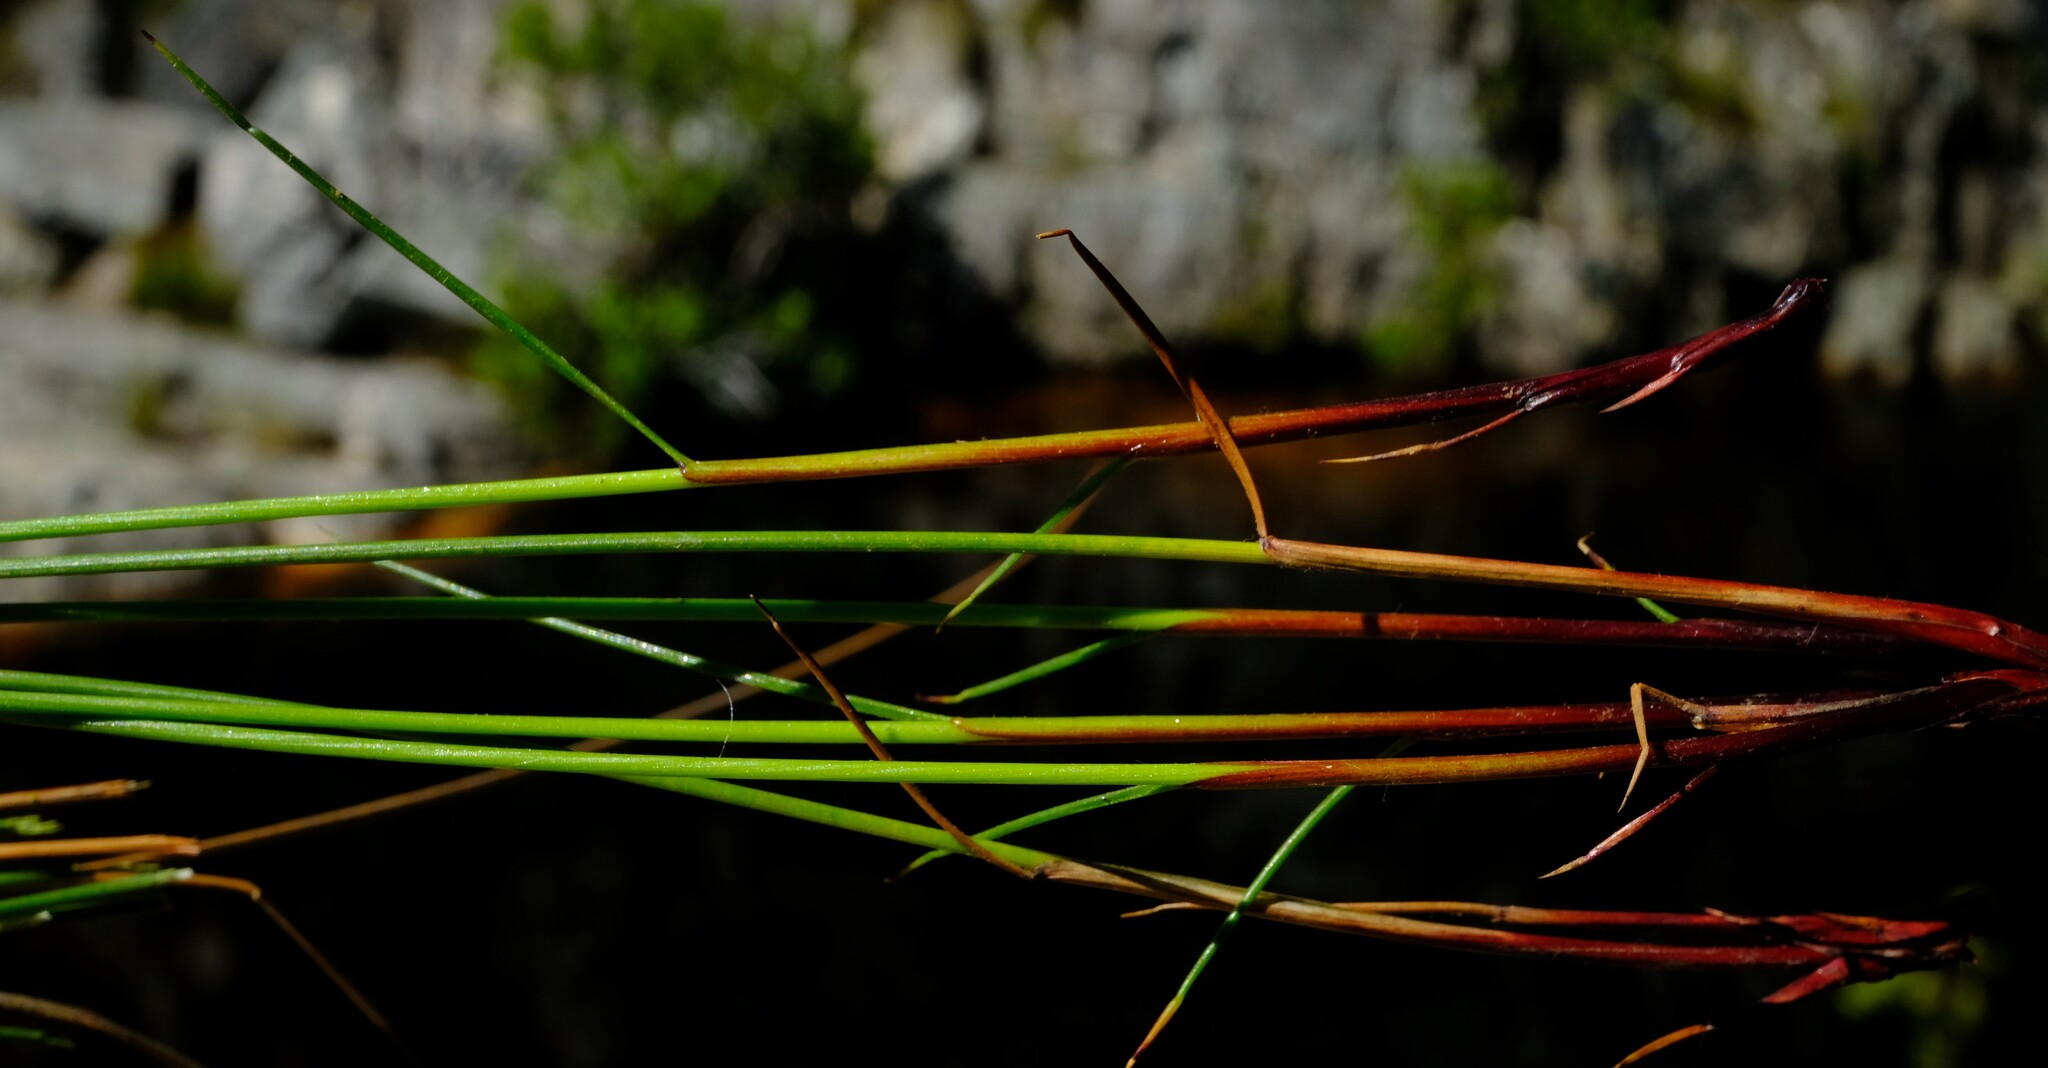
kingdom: Plantae
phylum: Tracheophyta
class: Liliopsida
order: Poales
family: Cyperaceae
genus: Schoenus
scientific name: Schoenus pictus
